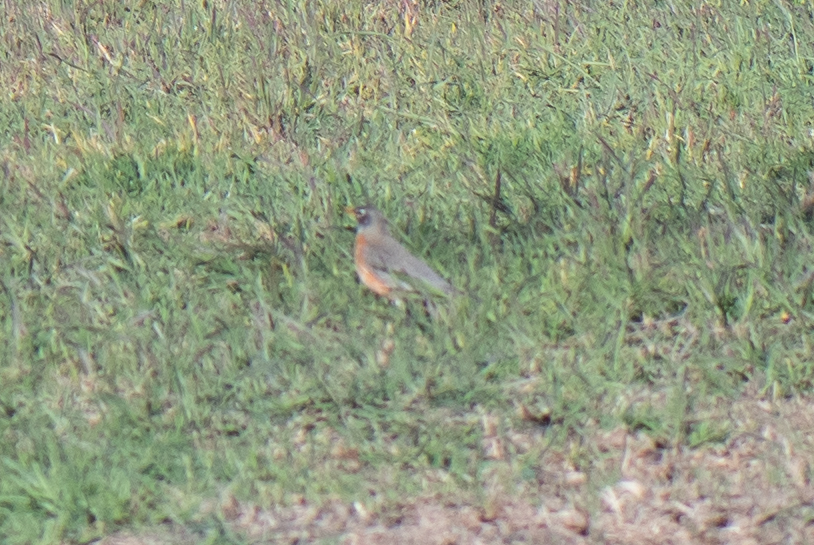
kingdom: Animalia
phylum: Chordata
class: Aves
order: Passeriformes
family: Turdidae
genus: Turdus
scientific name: Turdus migratorius
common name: American robin
